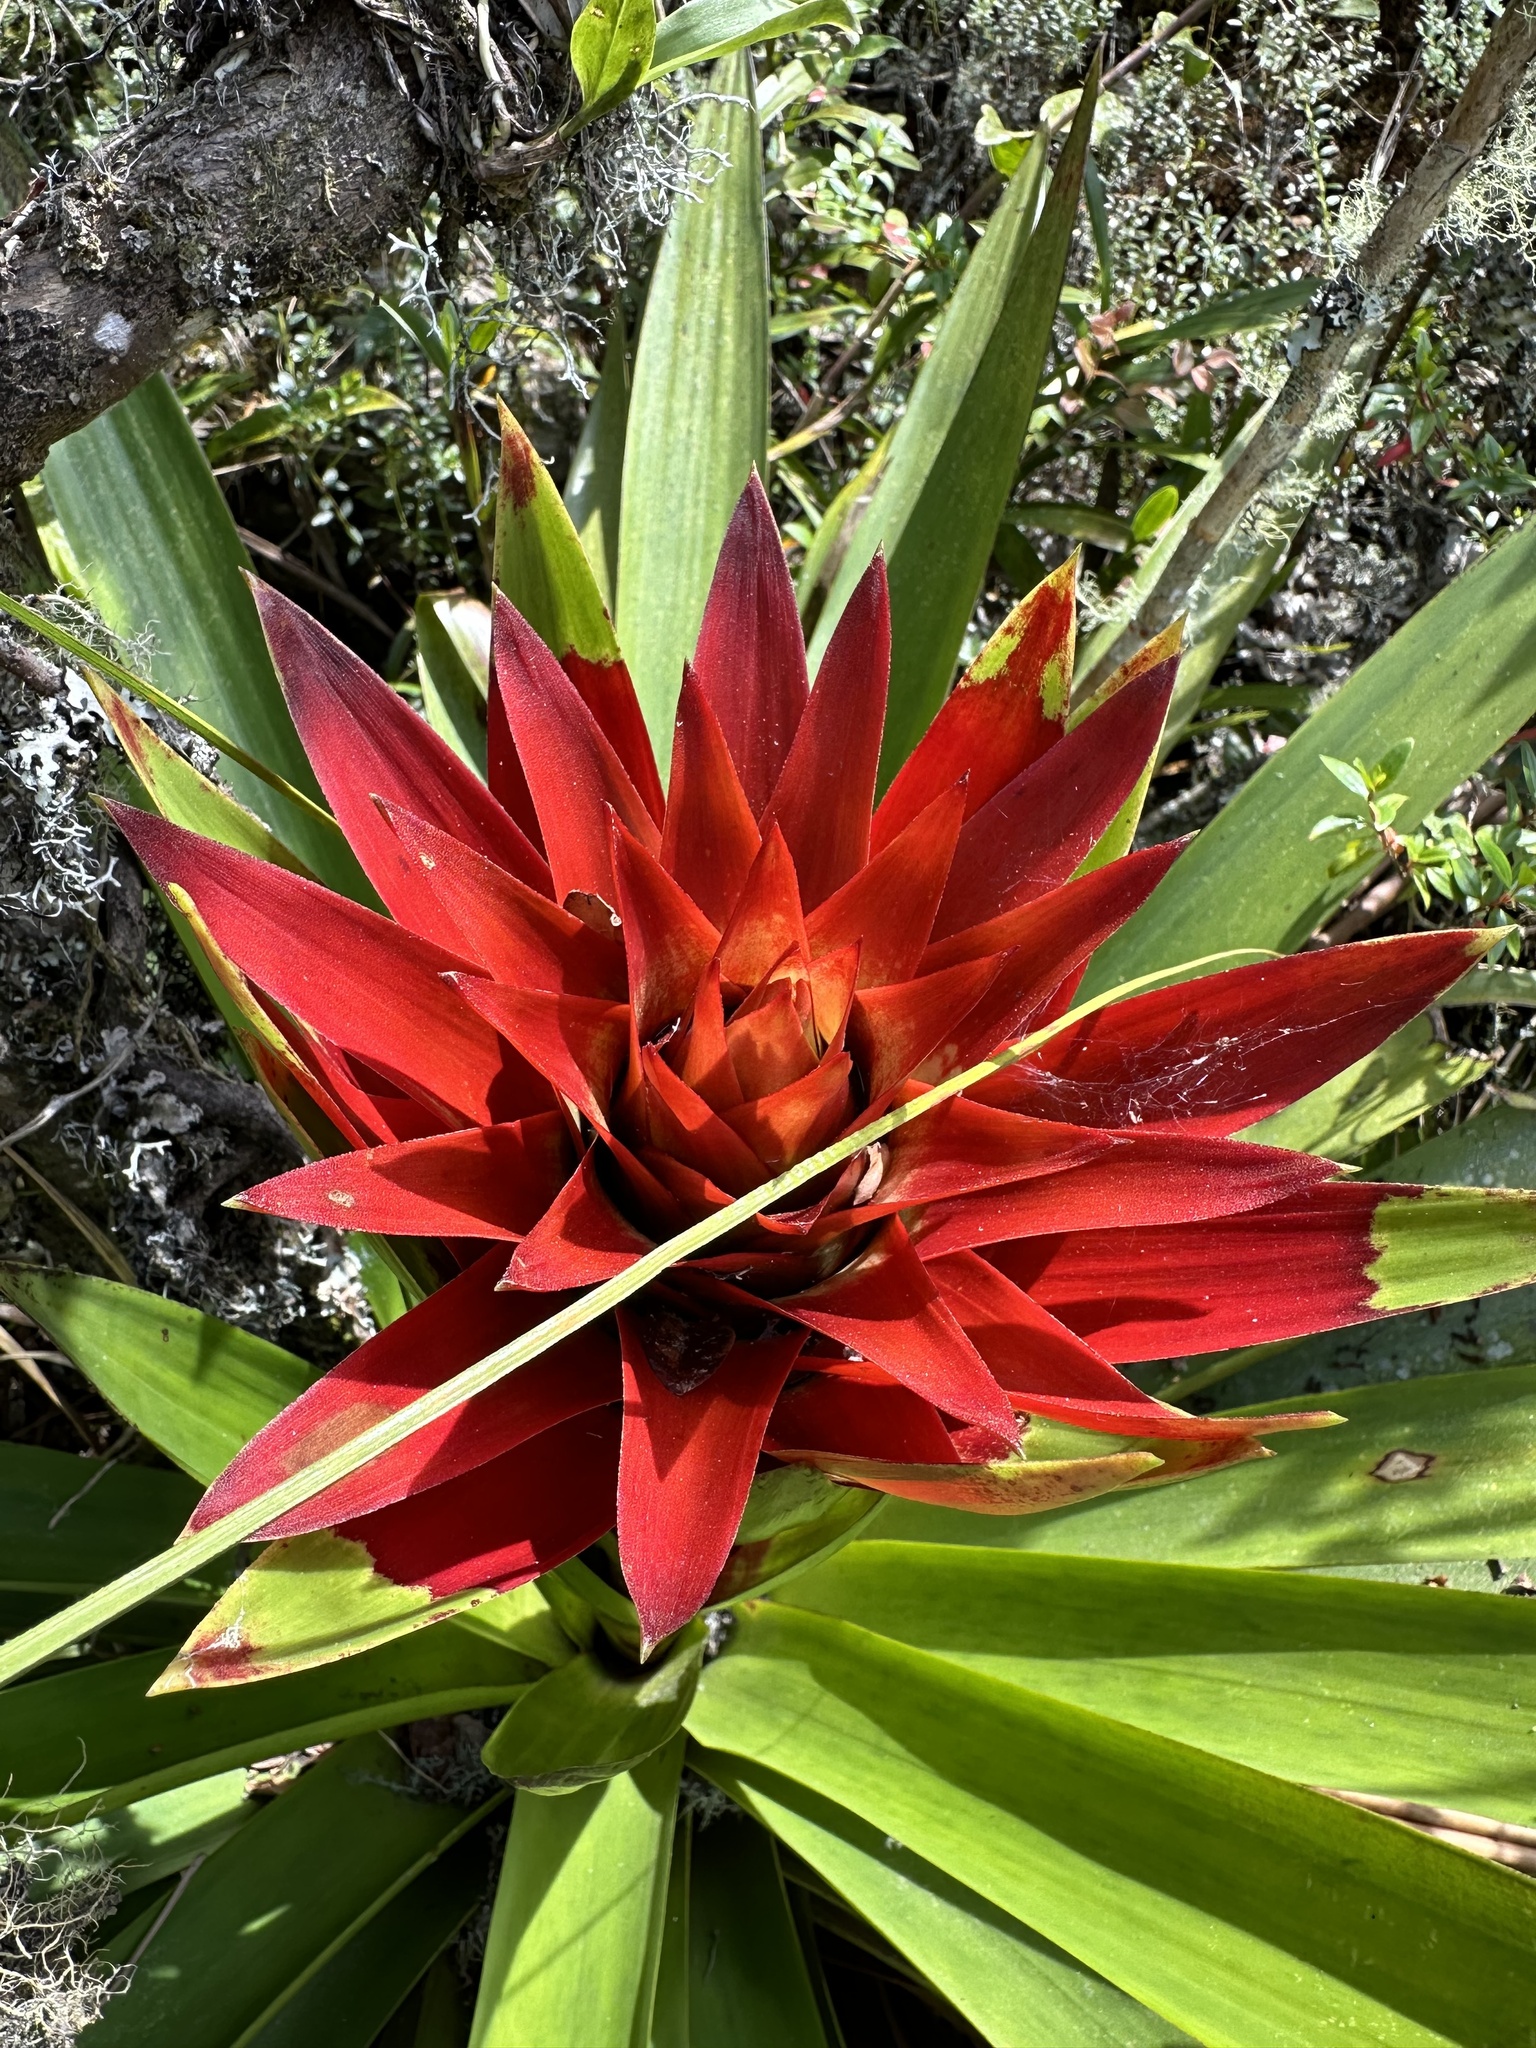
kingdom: Plantae
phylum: Tracheophyta
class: Liliopsida
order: Poales
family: Bromeliaceae
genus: Tillandsia
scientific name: Tillandsia schimperiana
